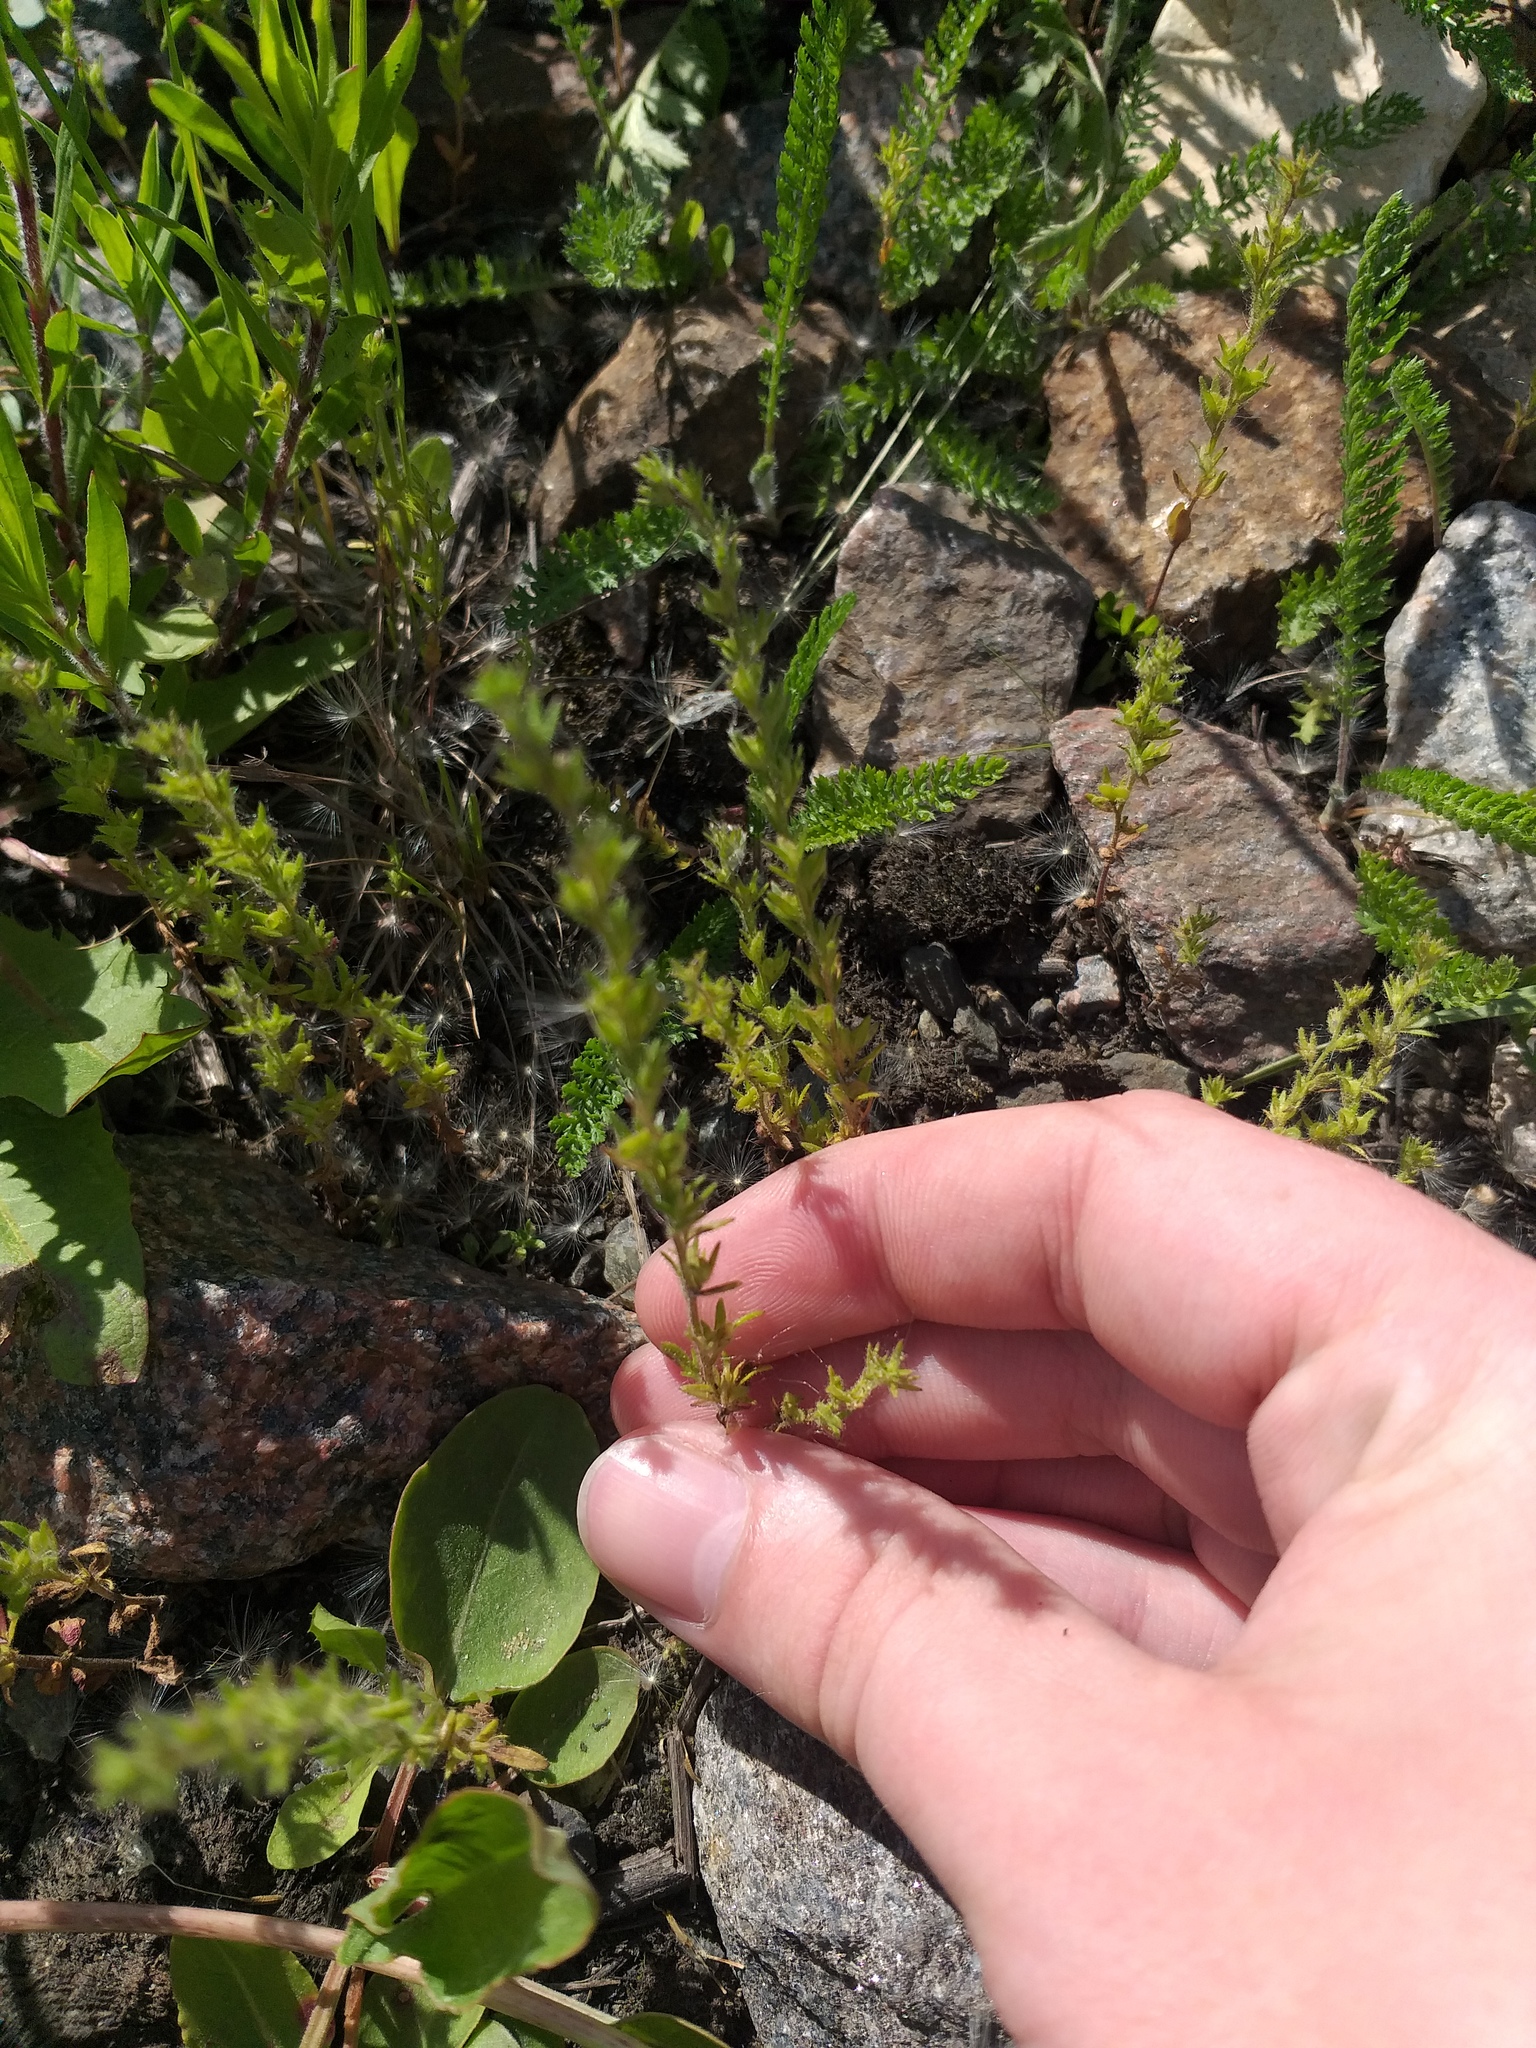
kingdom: Plantae
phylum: Tracheophyta
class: Magnoliopsida
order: Lamiales
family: Plantaginaceae
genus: Veronica
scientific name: Veronica verna
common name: Spring speedwell
